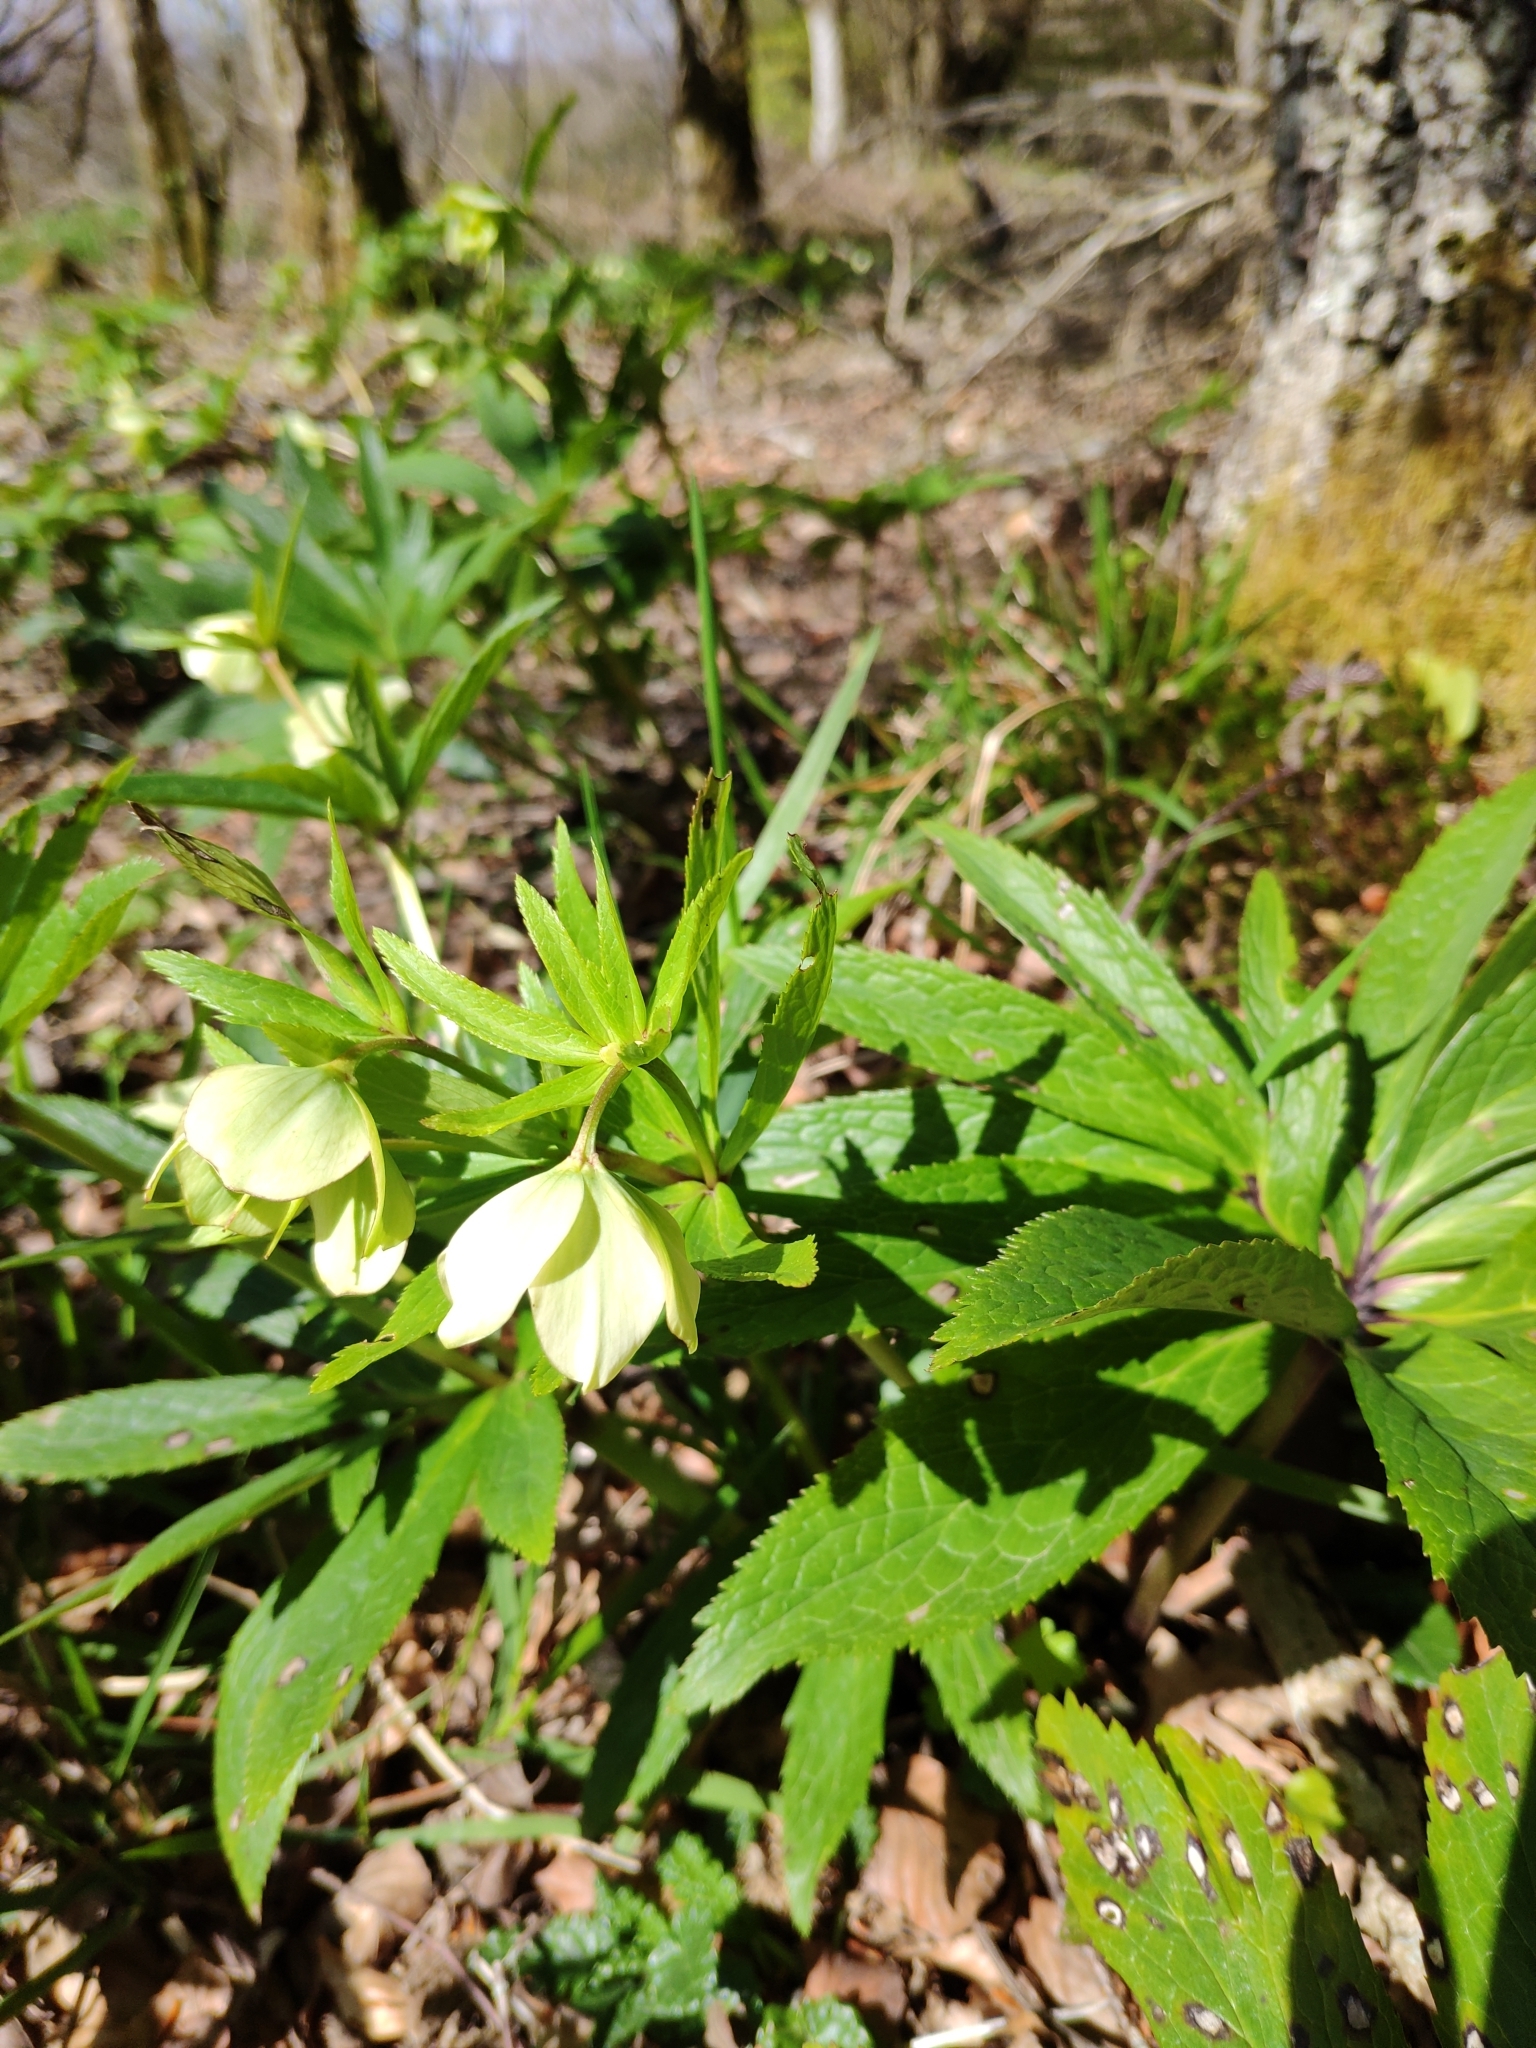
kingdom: Plantae
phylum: Tracheophyta
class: Magnoliopsida
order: Ranunculales
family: Ranunculaceae
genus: Helleborus
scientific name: Helleborus viridis
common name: Green hellebore
